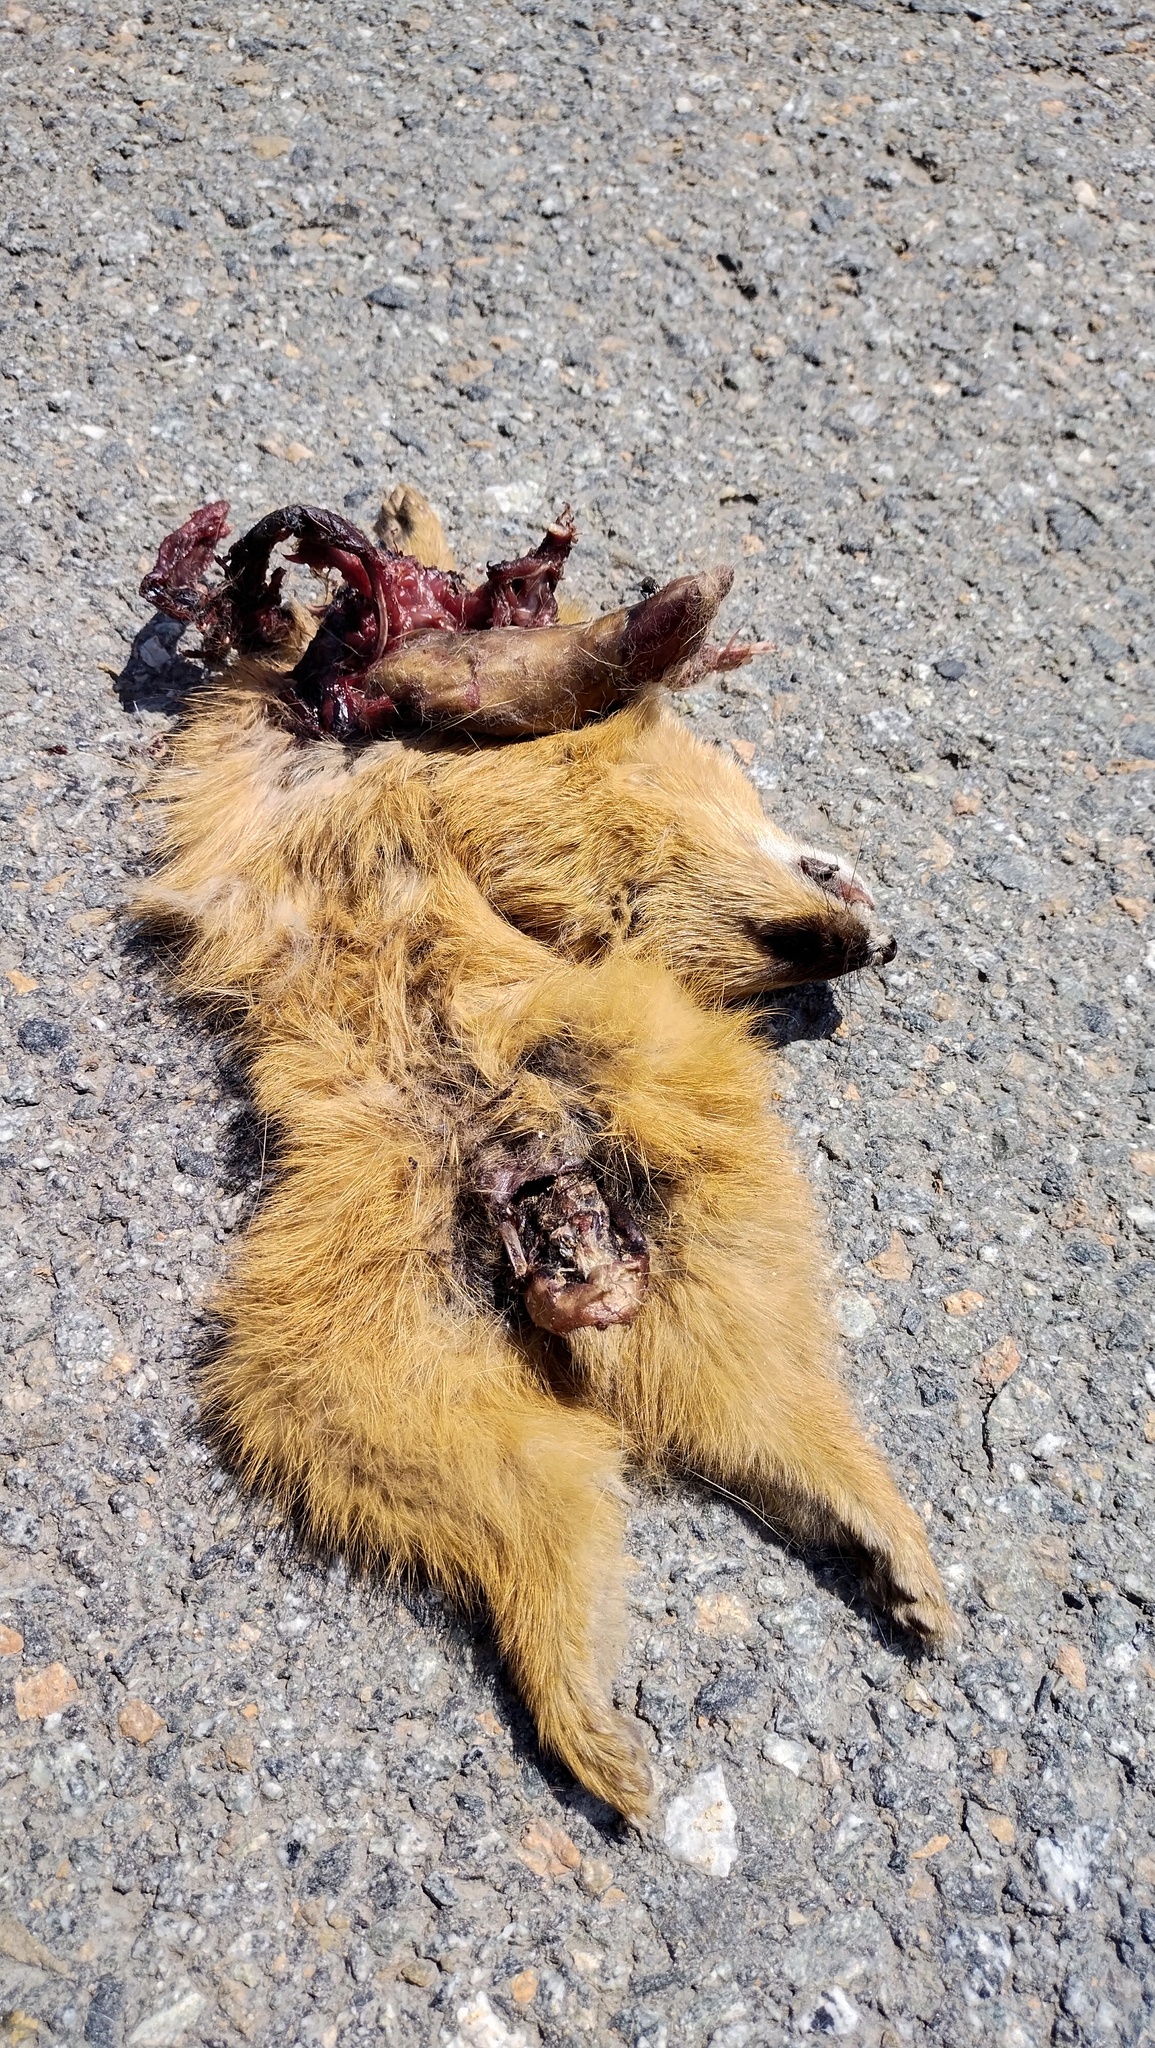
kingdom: Animalia
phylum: Chordata
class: Mammalia
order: Carnivora
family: Mustelidae
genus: Mustela
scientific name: Mustela sibirica
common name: Siberian weasel
